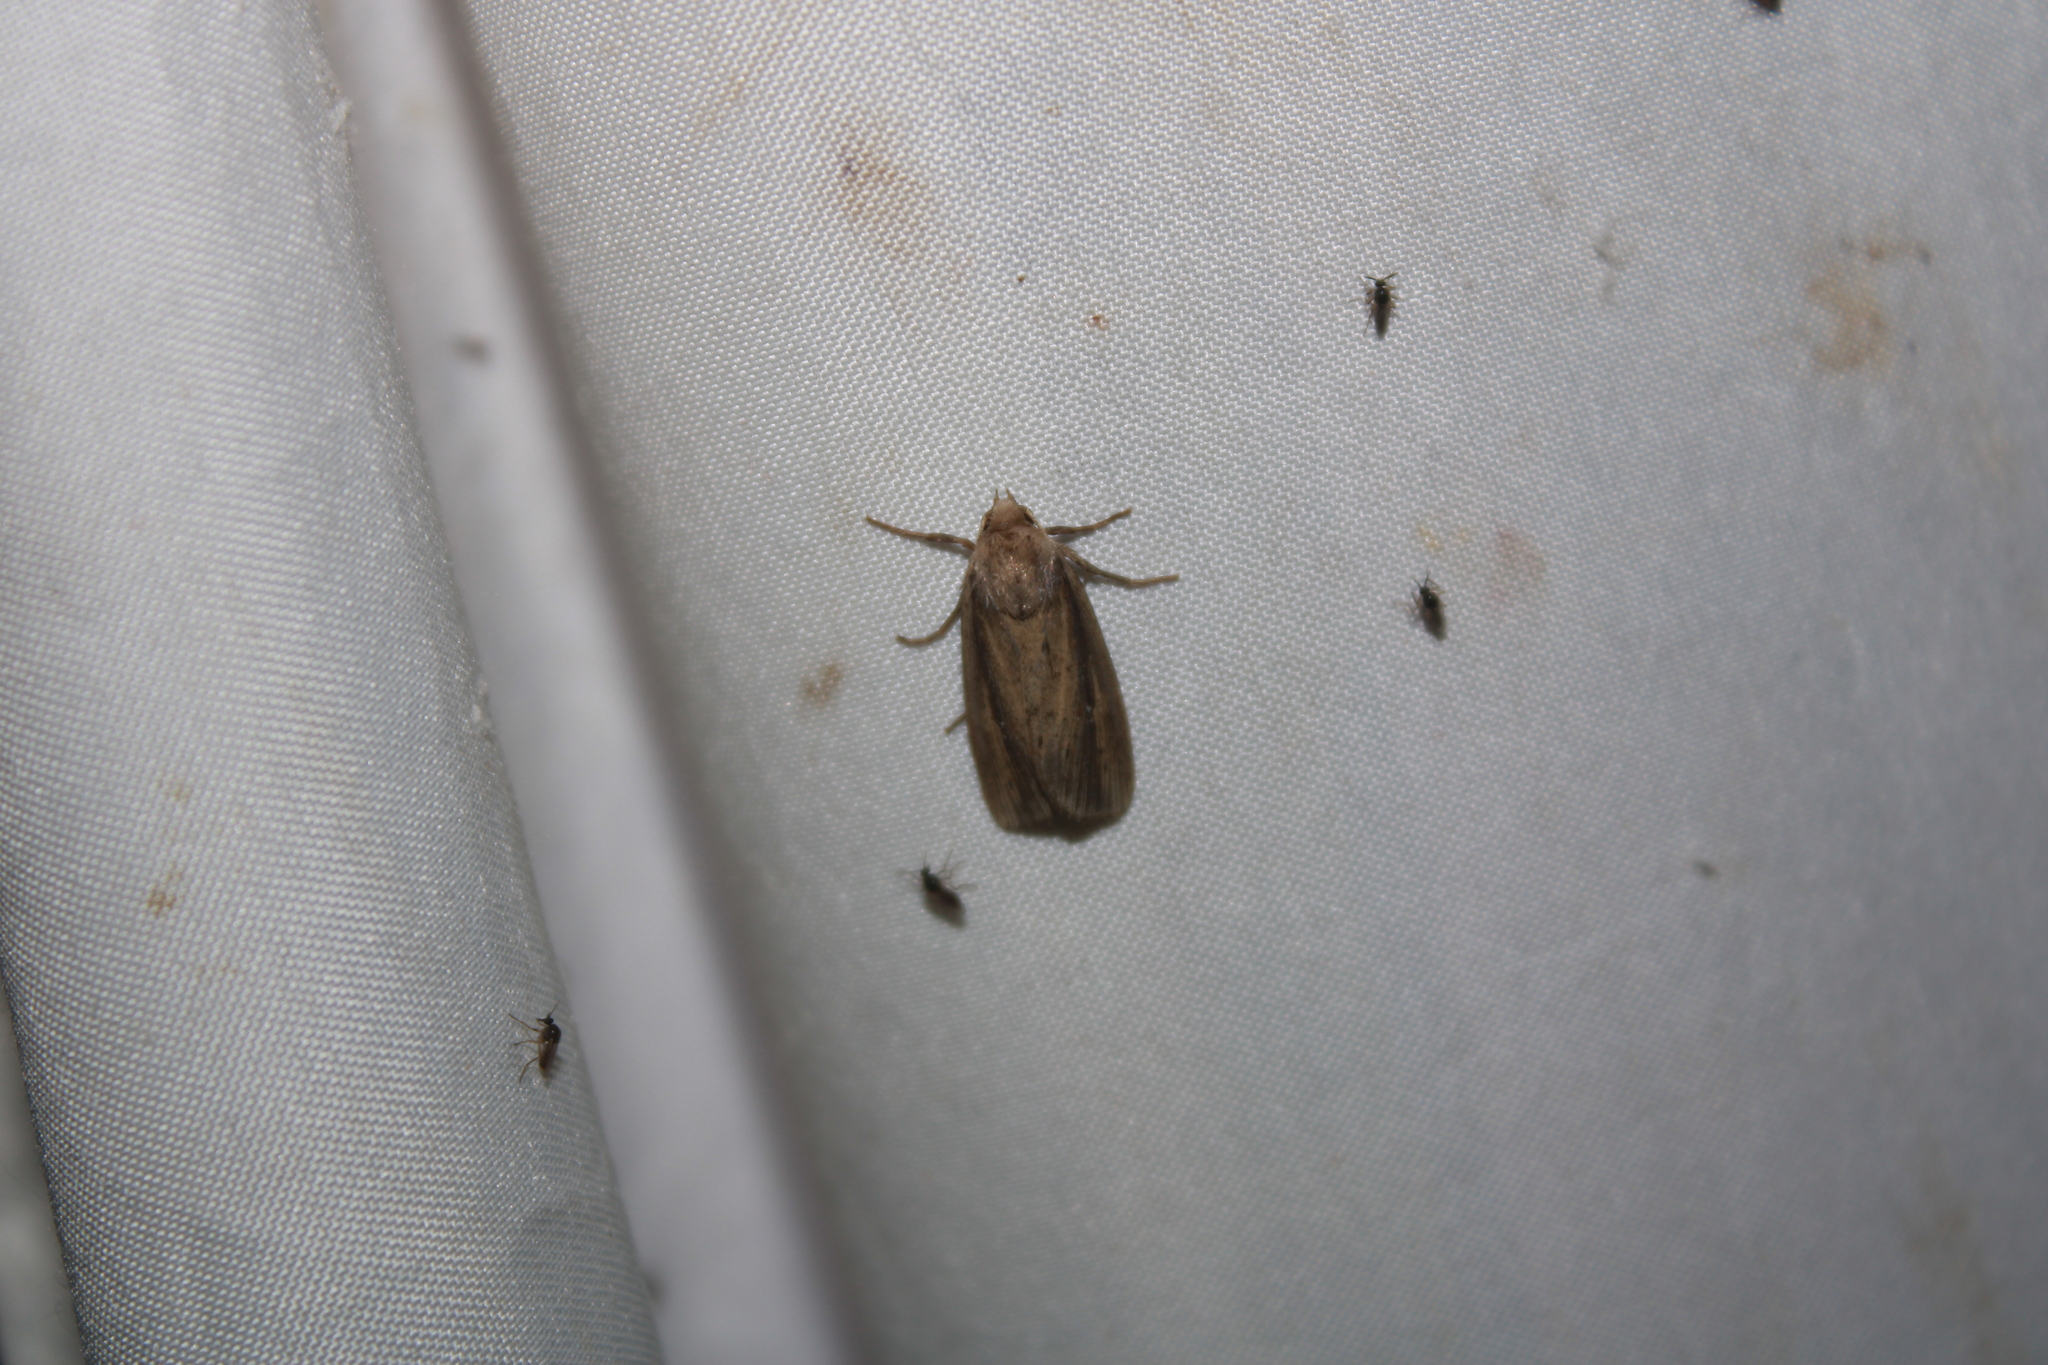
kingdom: Animalia
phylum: Arthropoda
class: Insecta
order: Lepidoptera
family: Noctuidae
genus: Leucania
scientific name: Leucania extincta
